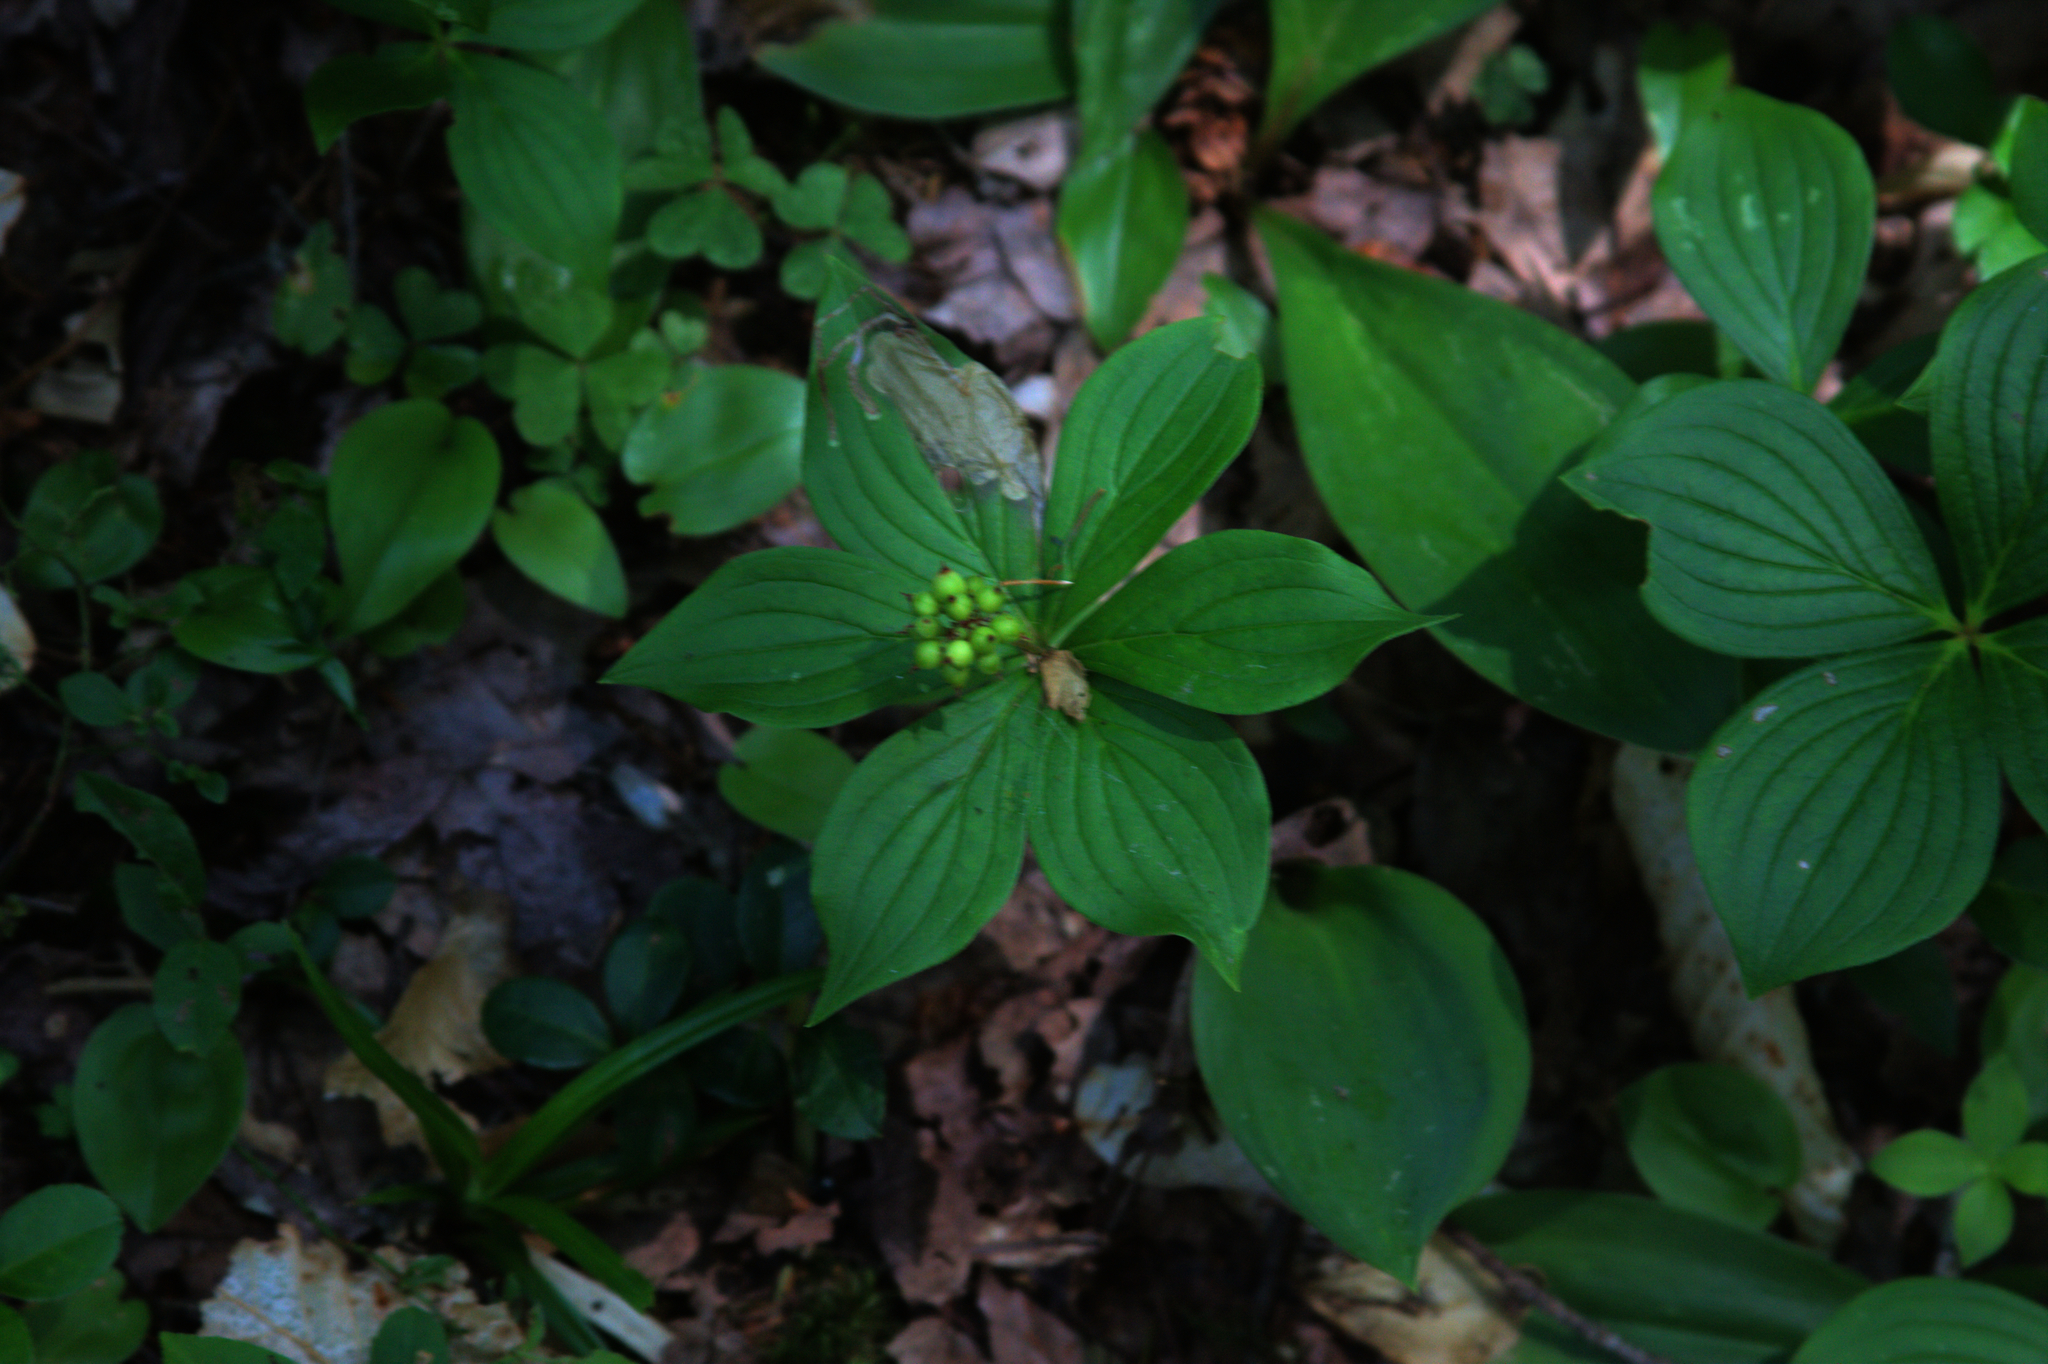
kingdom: Plantae
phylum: Tracheophyta
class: Magnoliopsida
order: Cornales
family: Cornaceae
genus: Cornus
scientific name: Cornus canadensis
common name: Creeping dogwood
